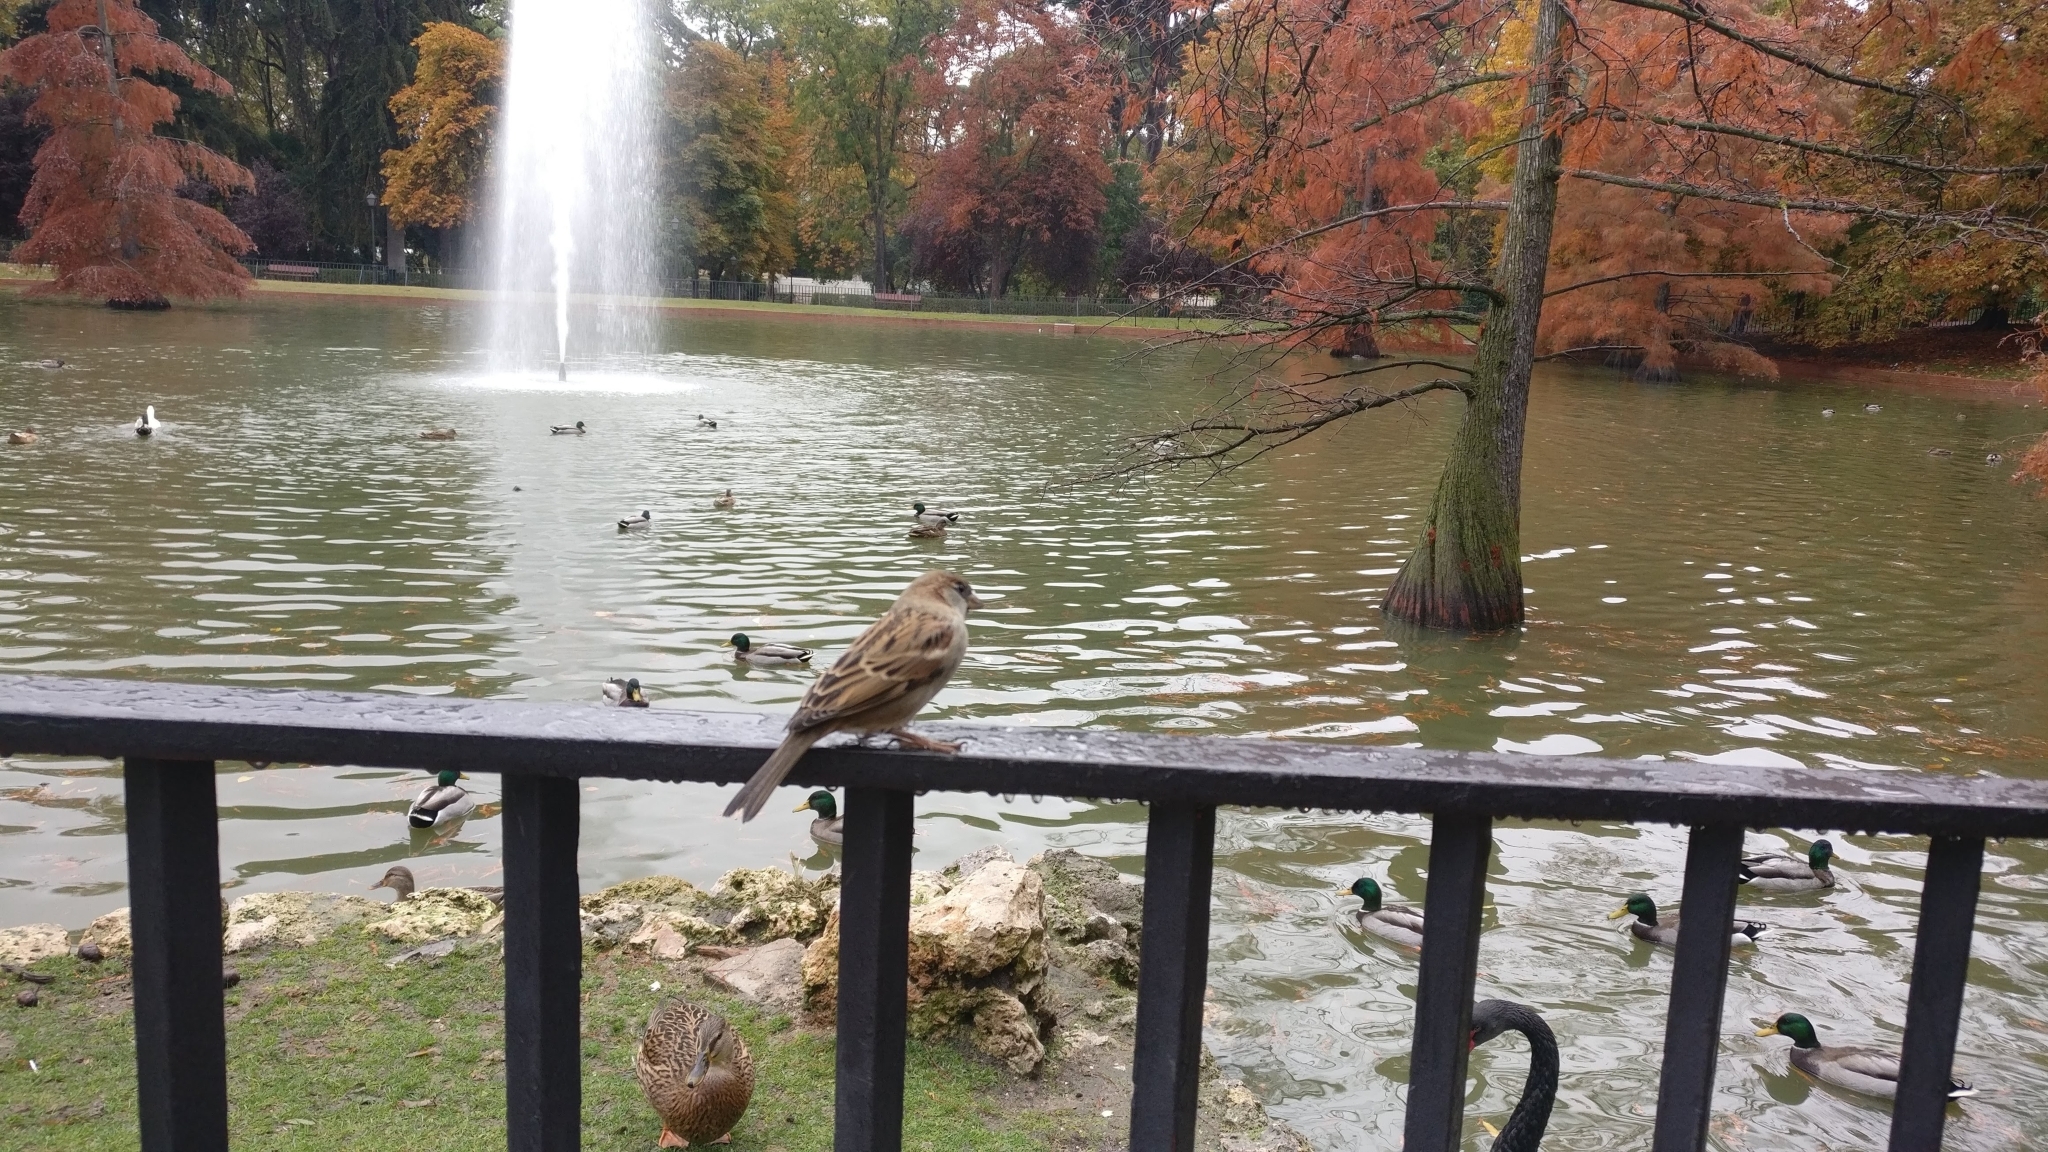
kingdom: Animalia
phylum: Chordata
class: Aves
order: Passeriformes
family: Passeridae
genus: Passer
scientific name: Passer domesticus
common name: House sparrow
